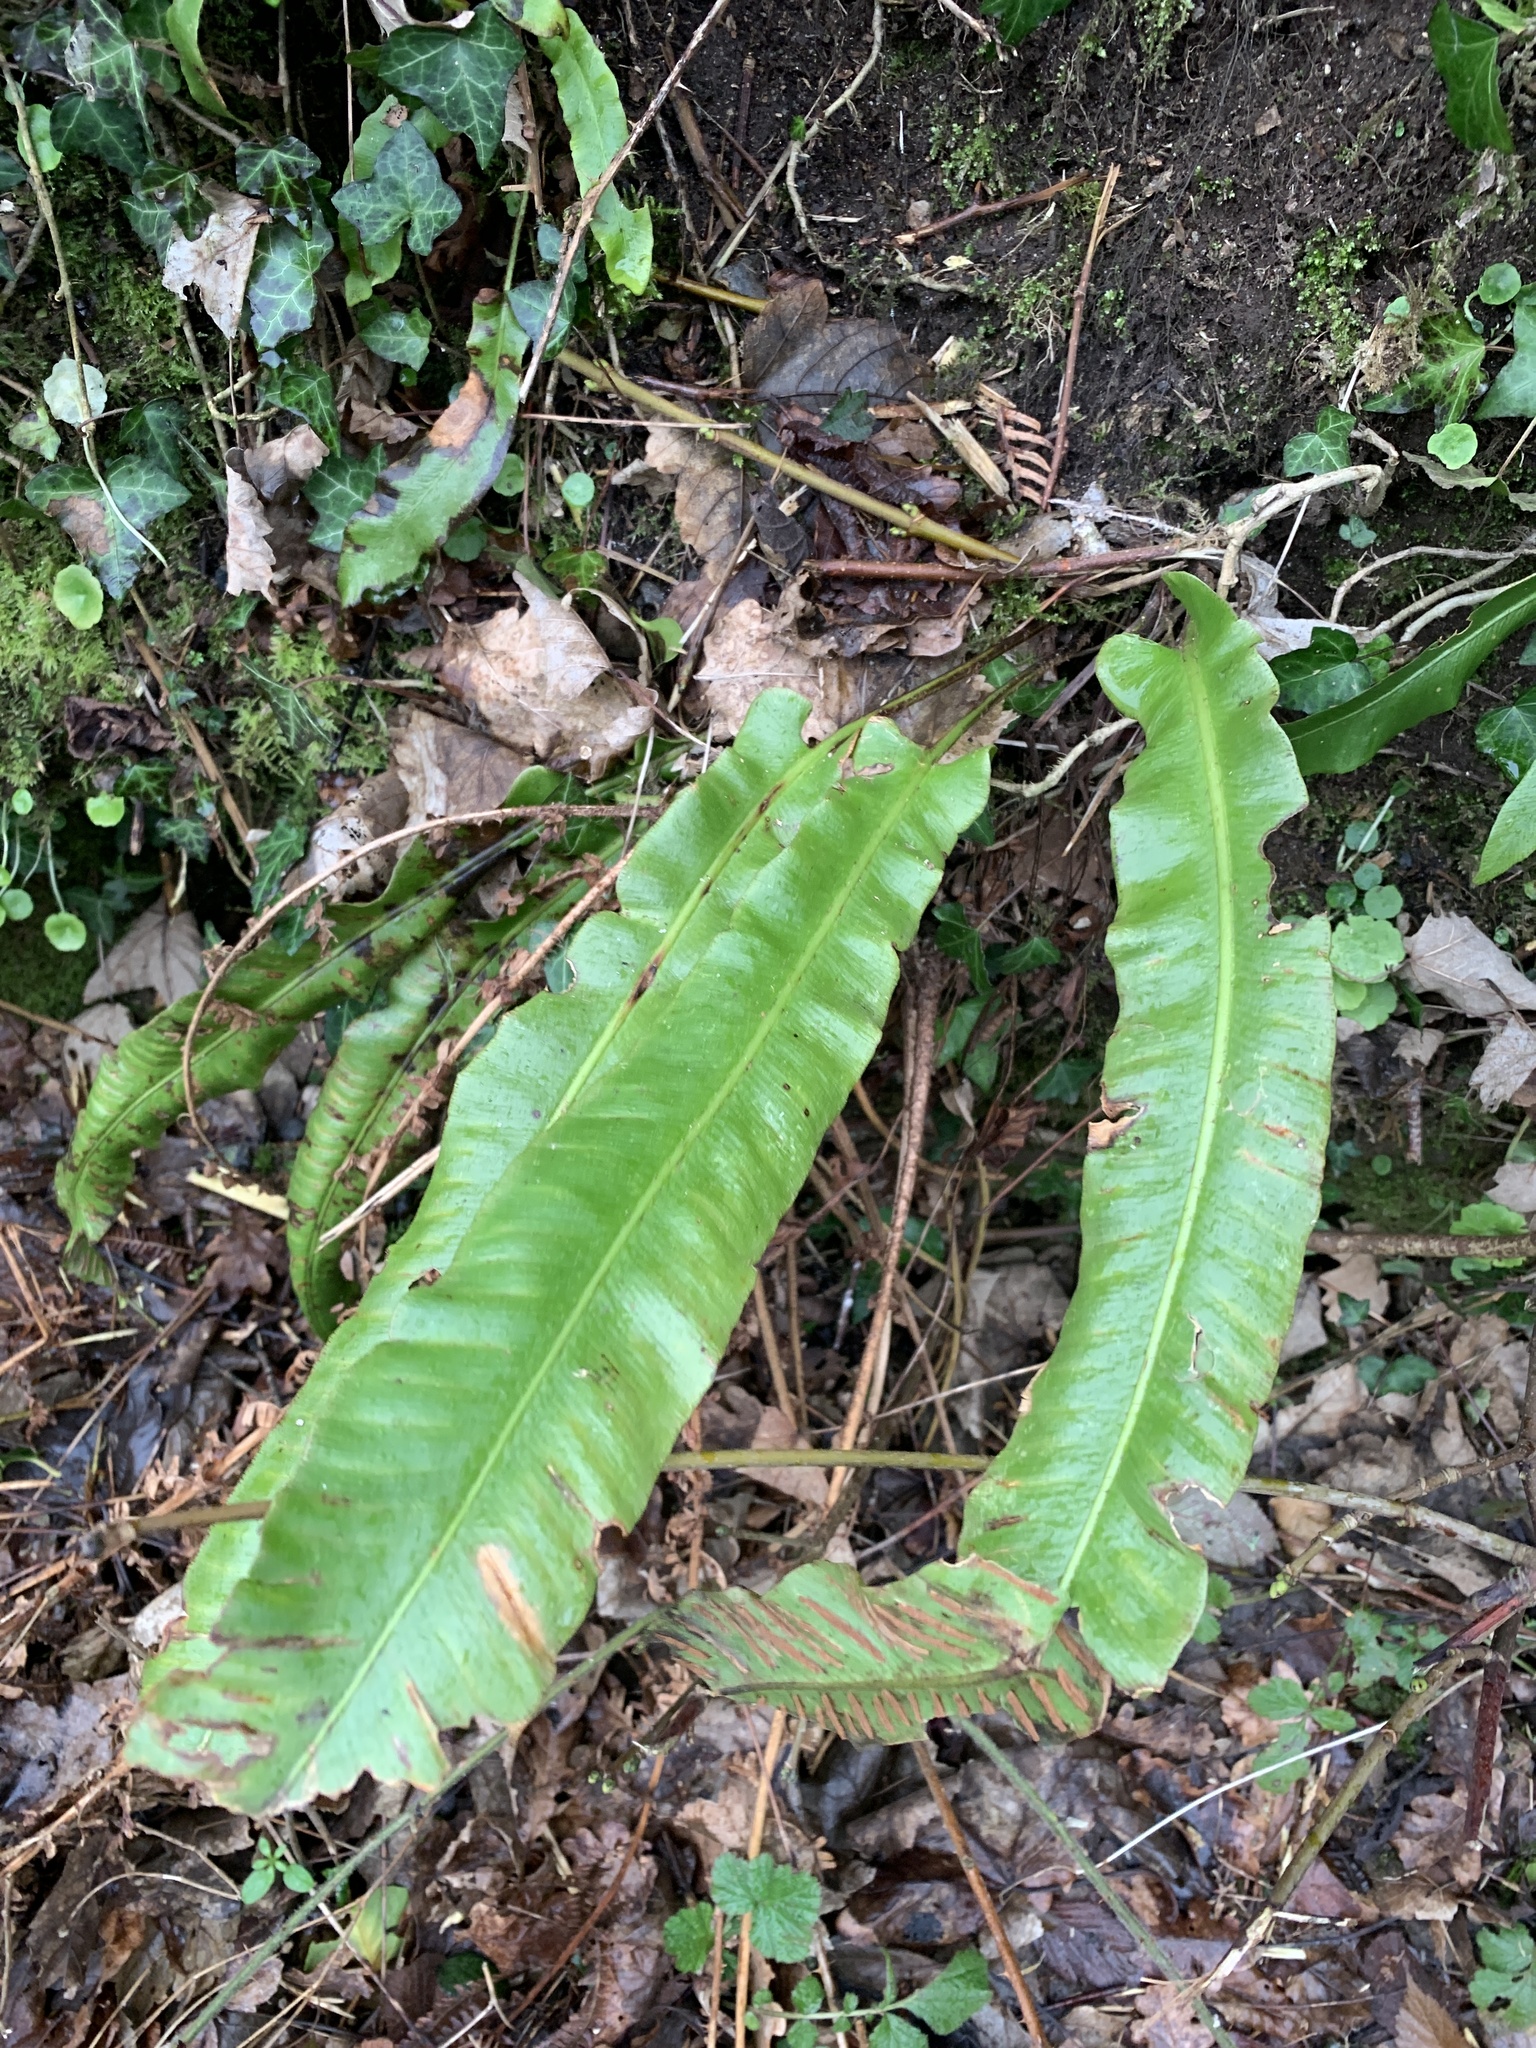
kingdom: Plantae
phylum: Tracheophyta
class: Polypodiopsida
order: Polypodiales
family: Aspleniaceae
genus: Asplenium
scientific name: Asplenium scolopendrium
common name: Hart's-tongue fern
